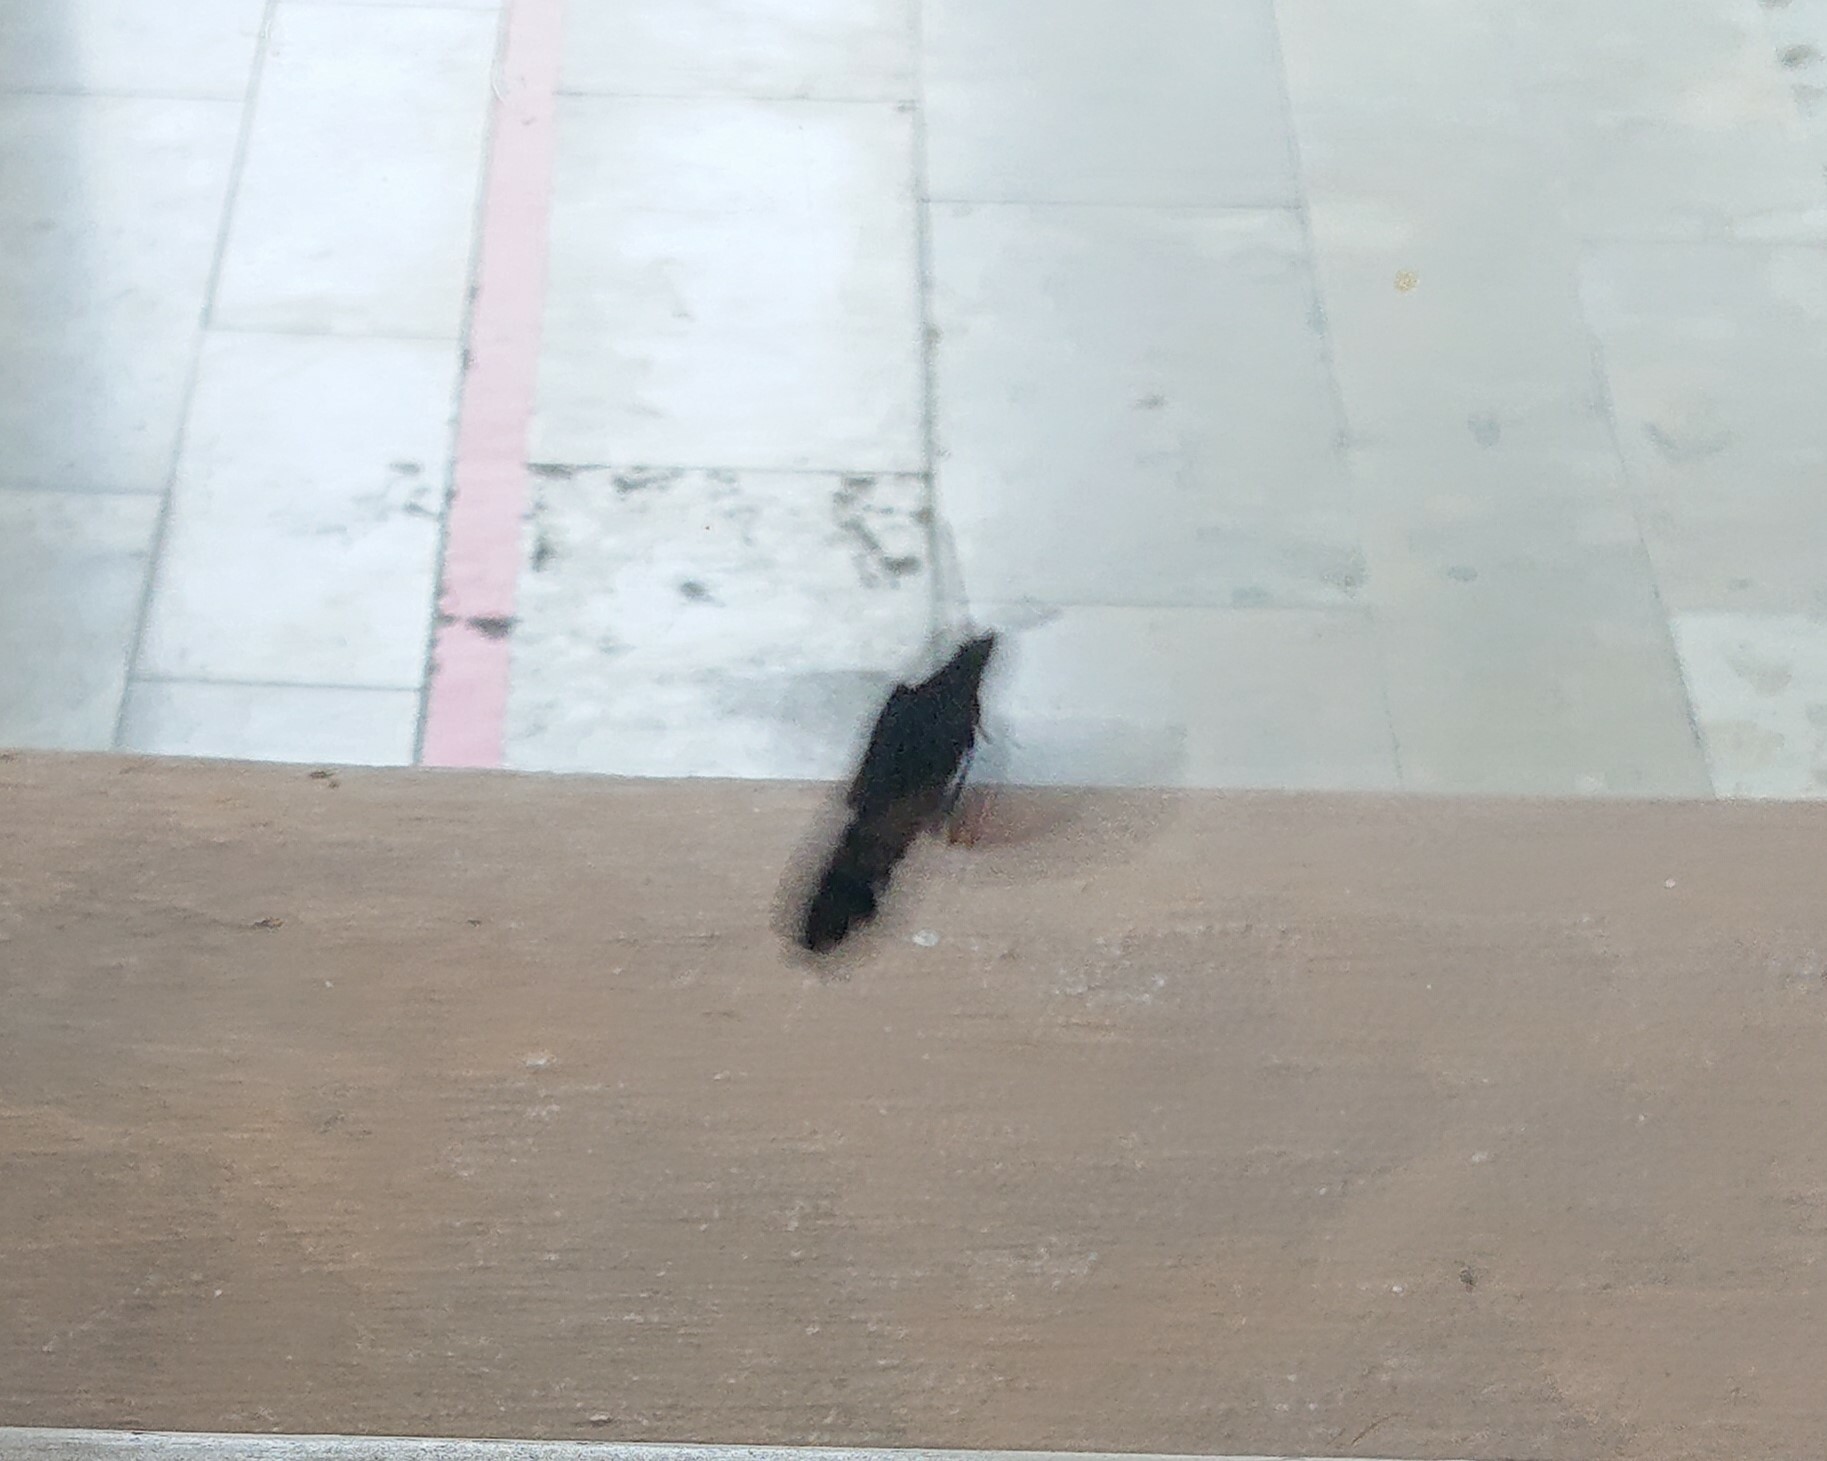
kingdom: Animalia
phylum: Arthropoda
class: Insecta
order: Lepidoptera
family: Sphingidae
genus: Macroglossum
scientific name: Macroglossum stellatarum
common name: Humming-bird hawk-moth
